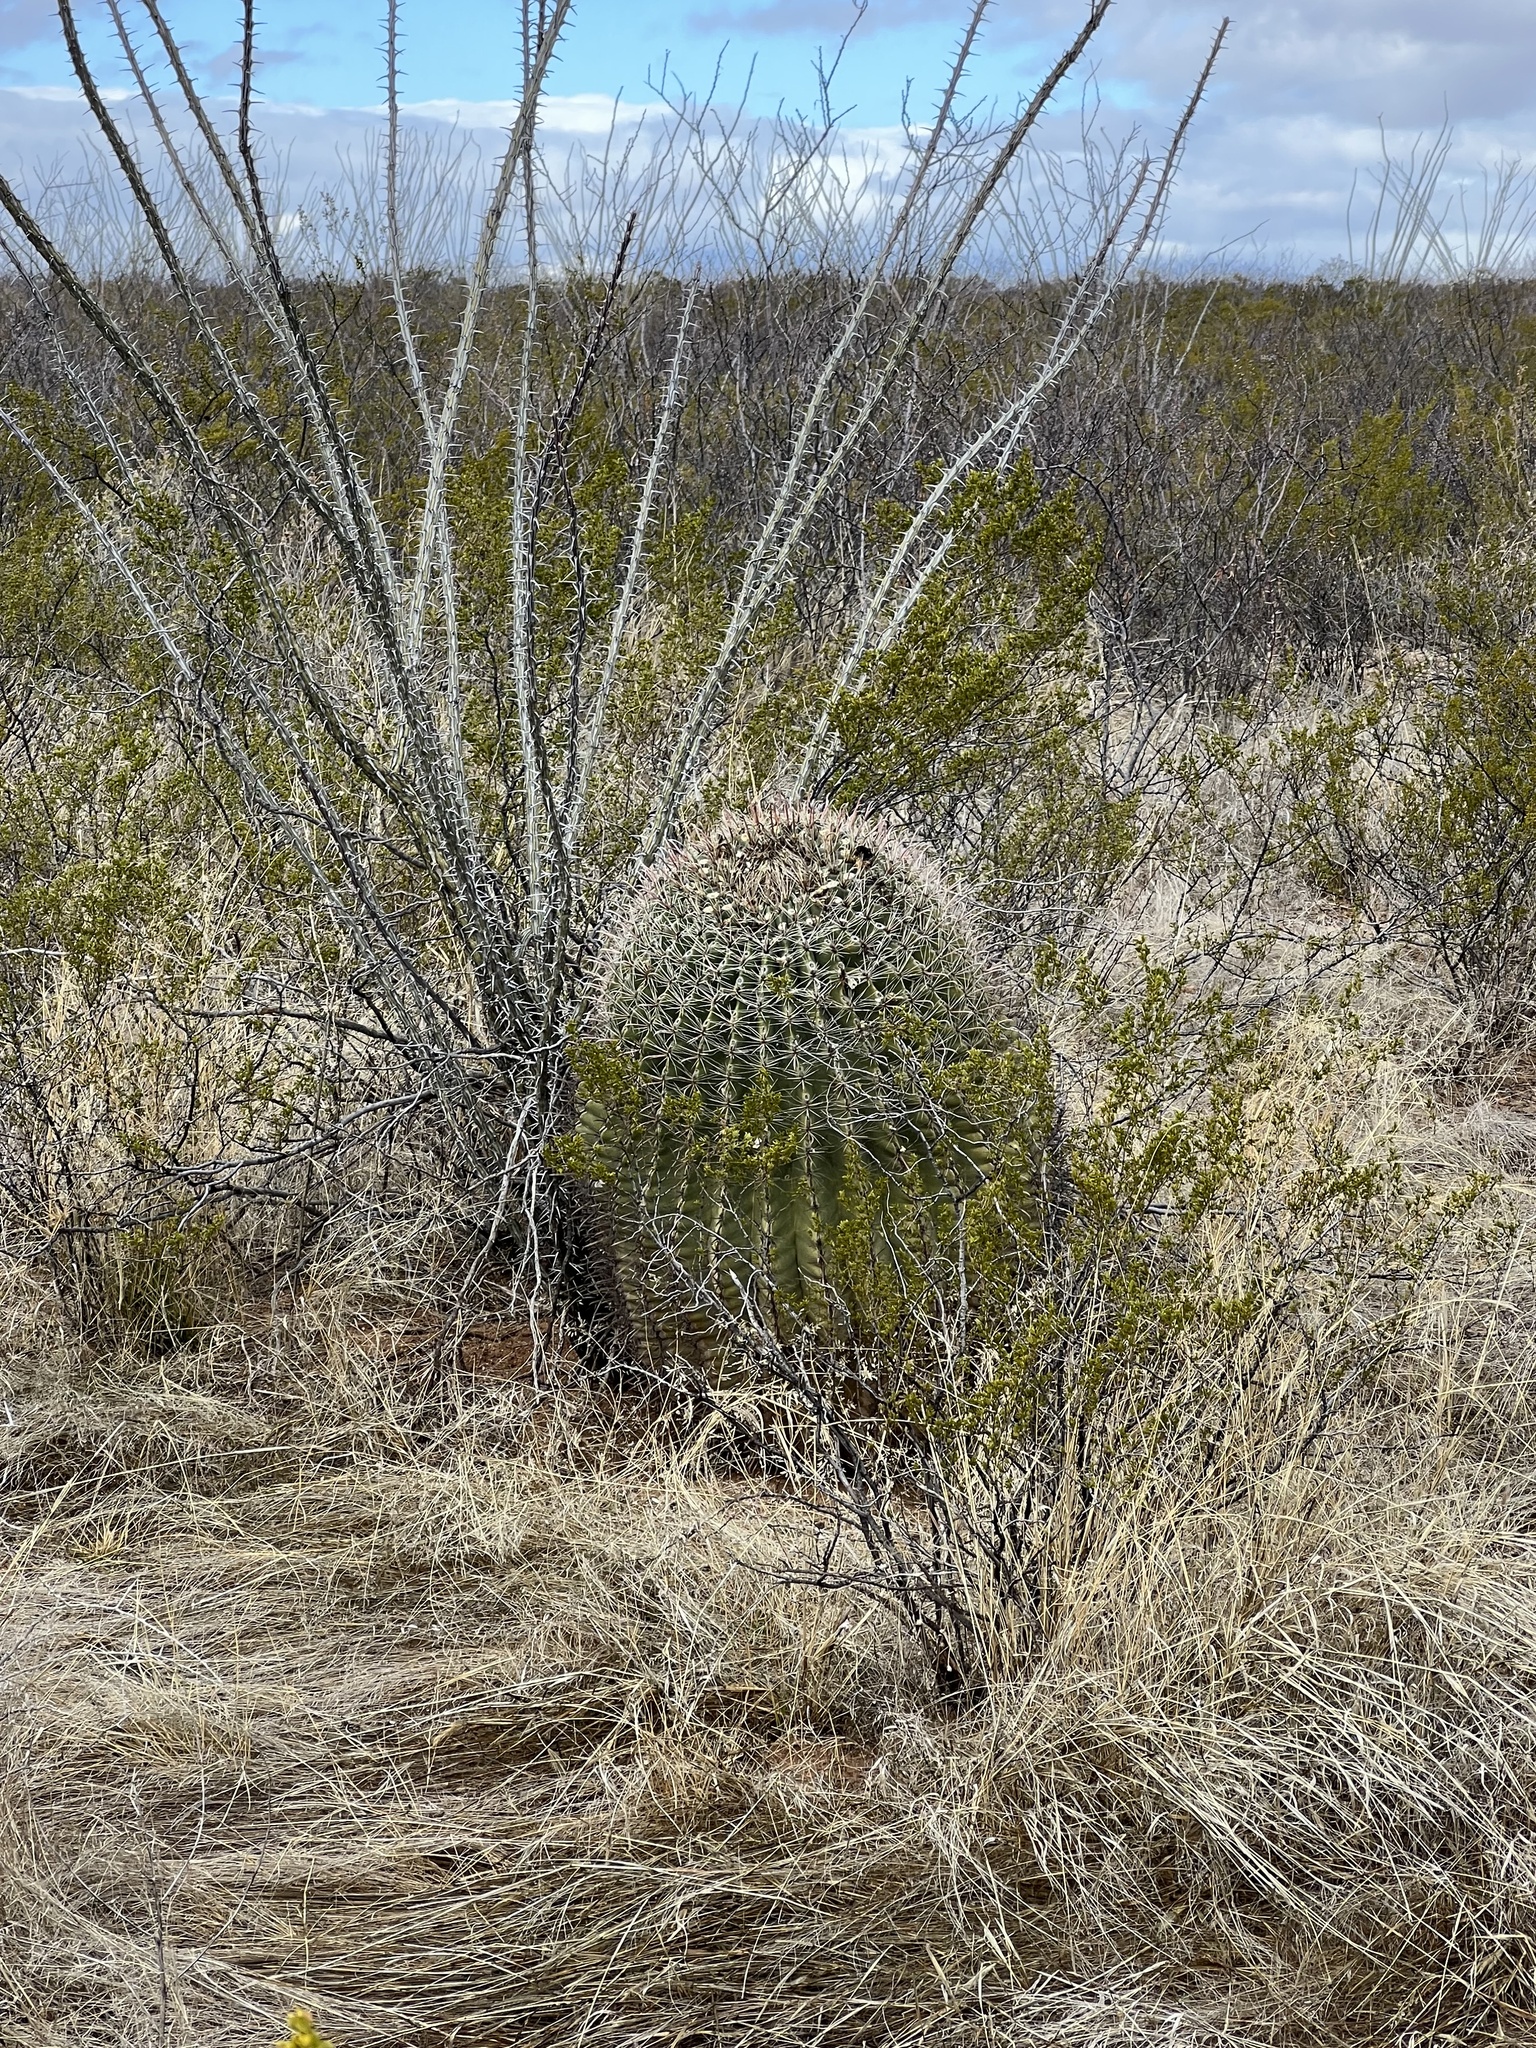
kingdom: Plantae
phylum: Tracheophyta
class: Magnoliopsida
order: Caryophyllales
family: Cactaceae
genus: Ferocactus
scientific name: Ferocactus wislizeni
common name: Candy barrel cactus
